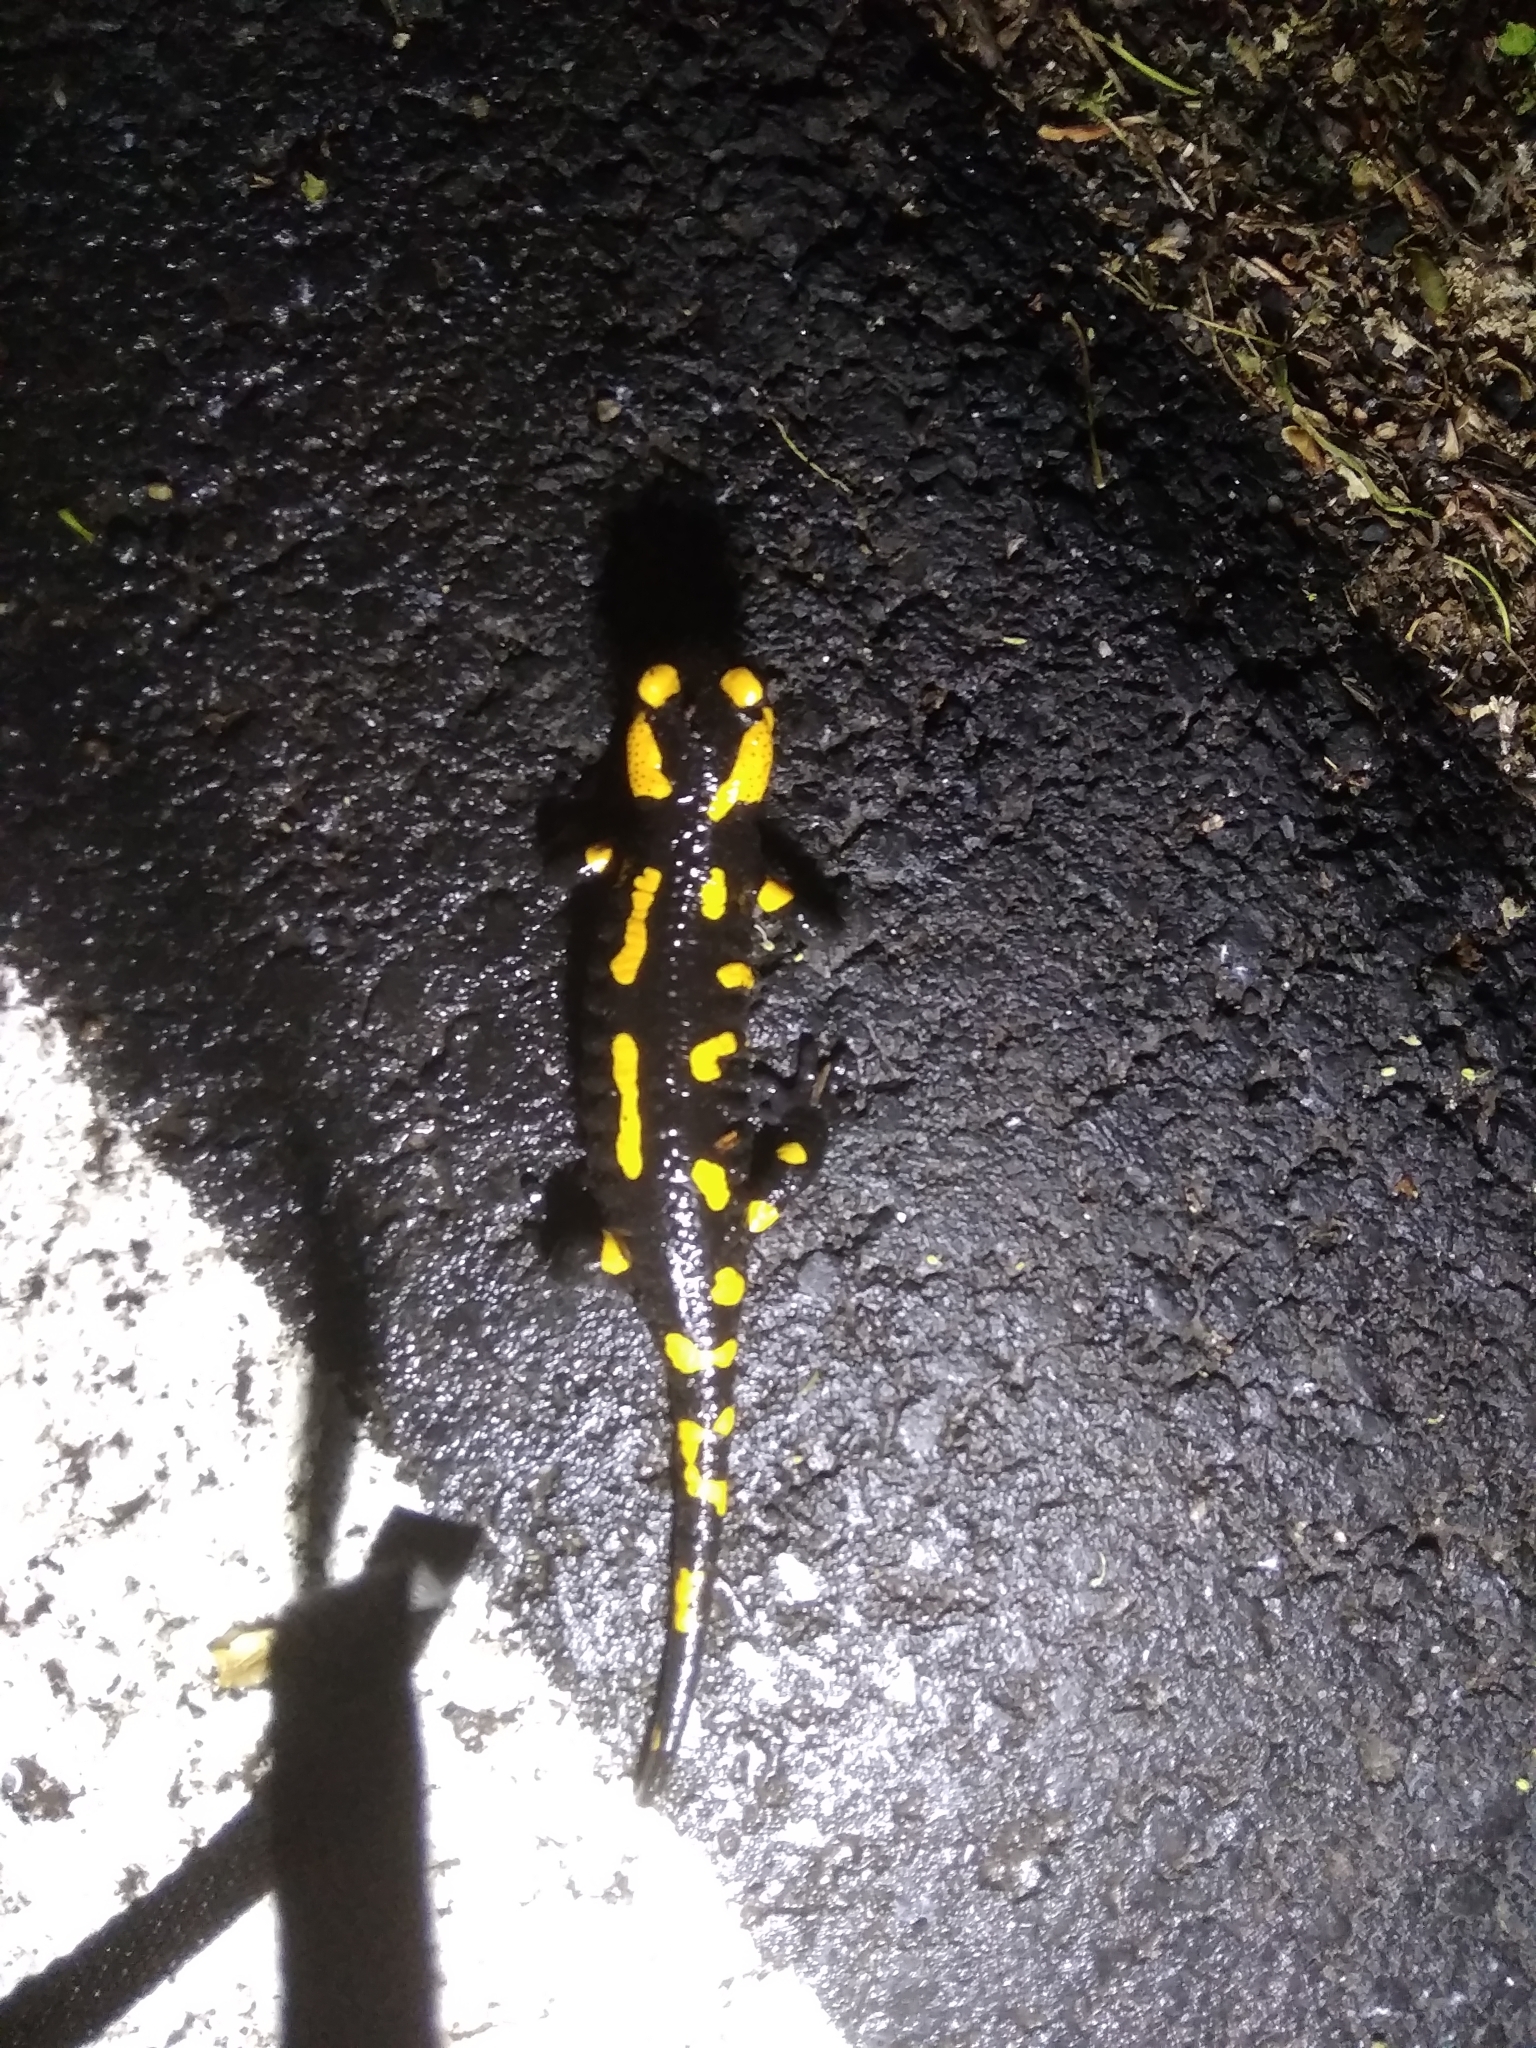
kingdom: Animalia
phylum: Chordata
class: Amphibia
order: Caudata
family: Salamandridae
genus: Salamandra
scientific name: Salamandra salamandra
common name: Fire salamander
